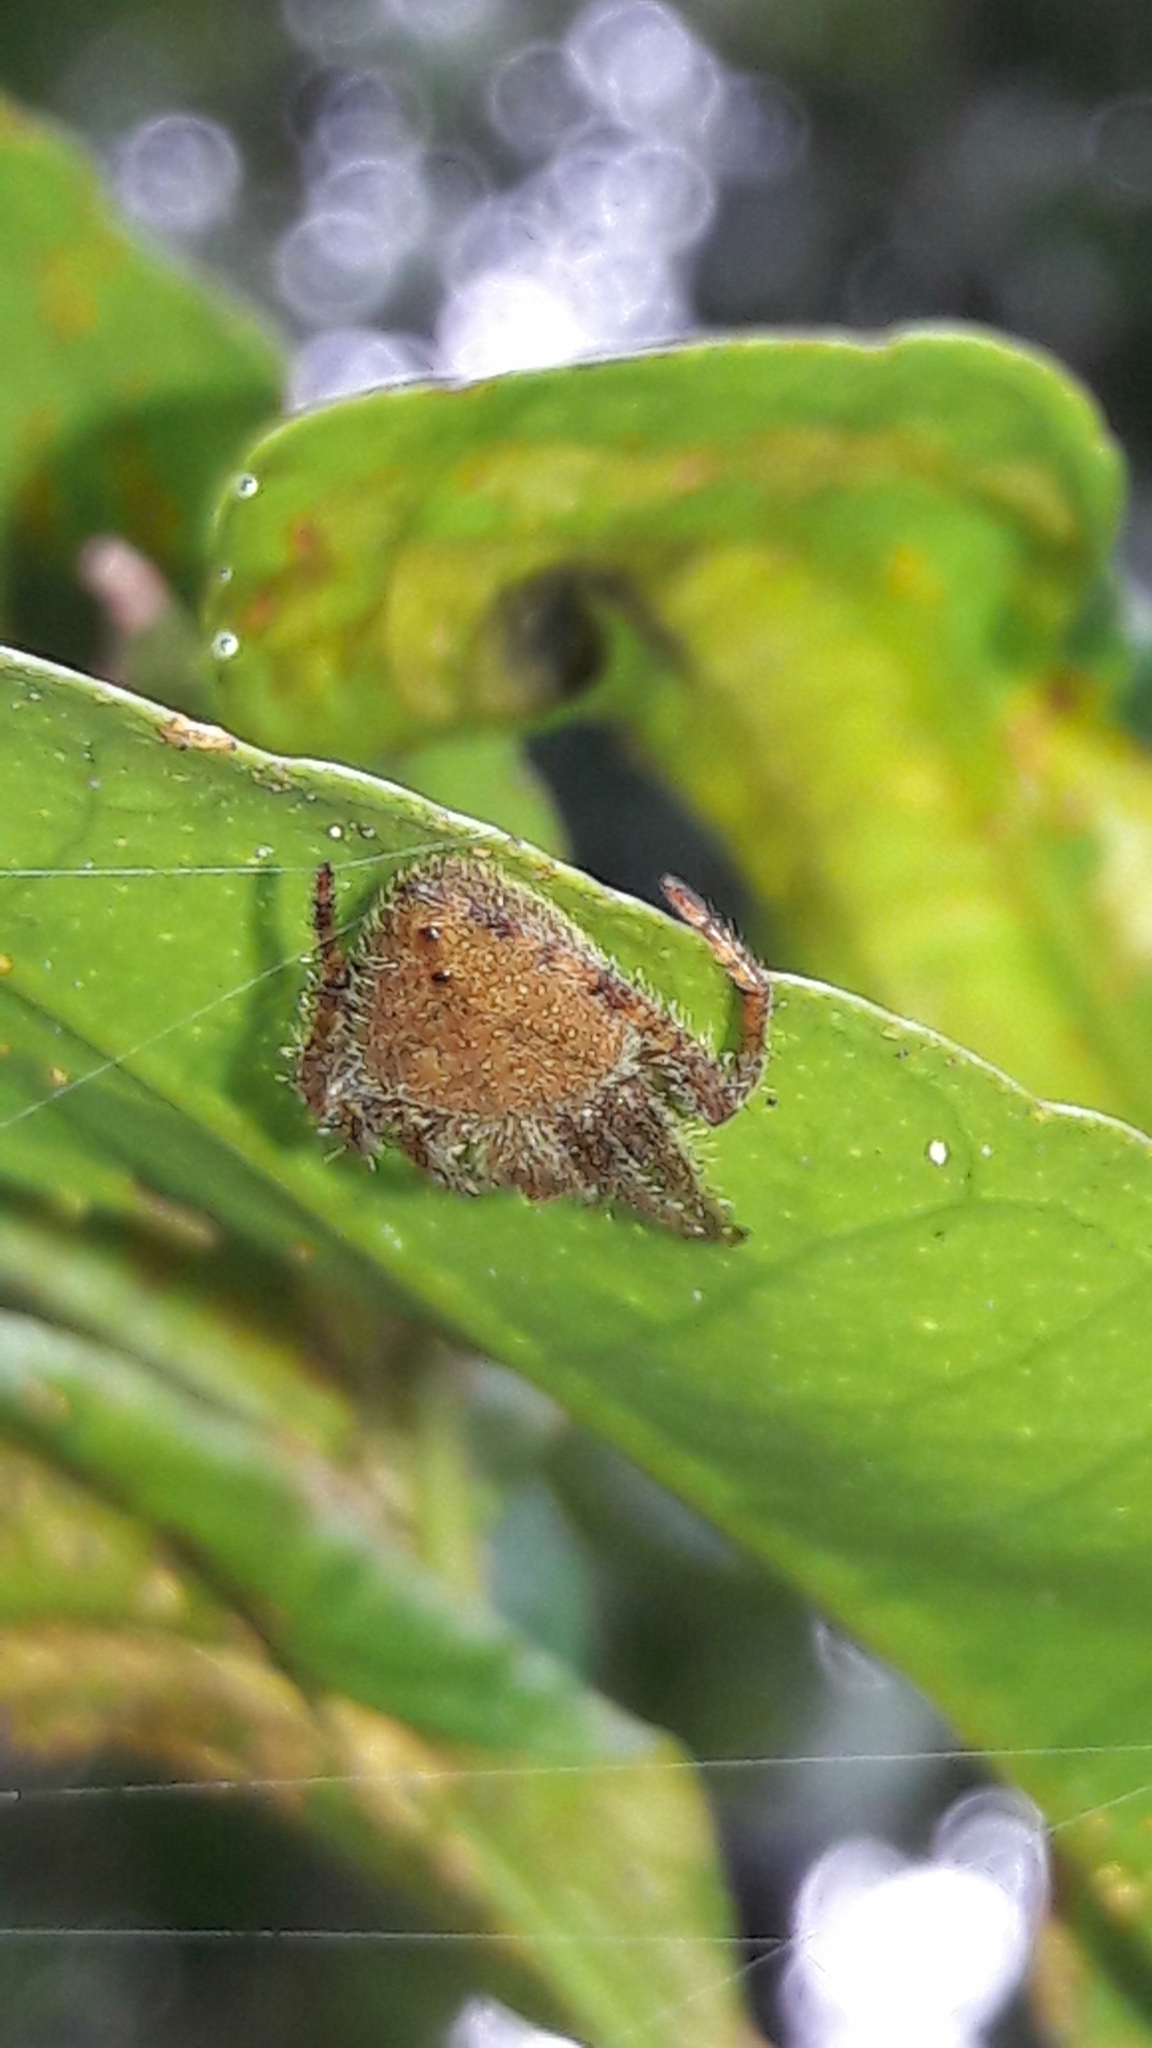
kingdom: Animalia
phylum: Arthropoda
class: Arachnida
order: Araneae
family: Araneidae
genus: Eriophora
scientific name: Eriophora edax
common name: Orb weavers
